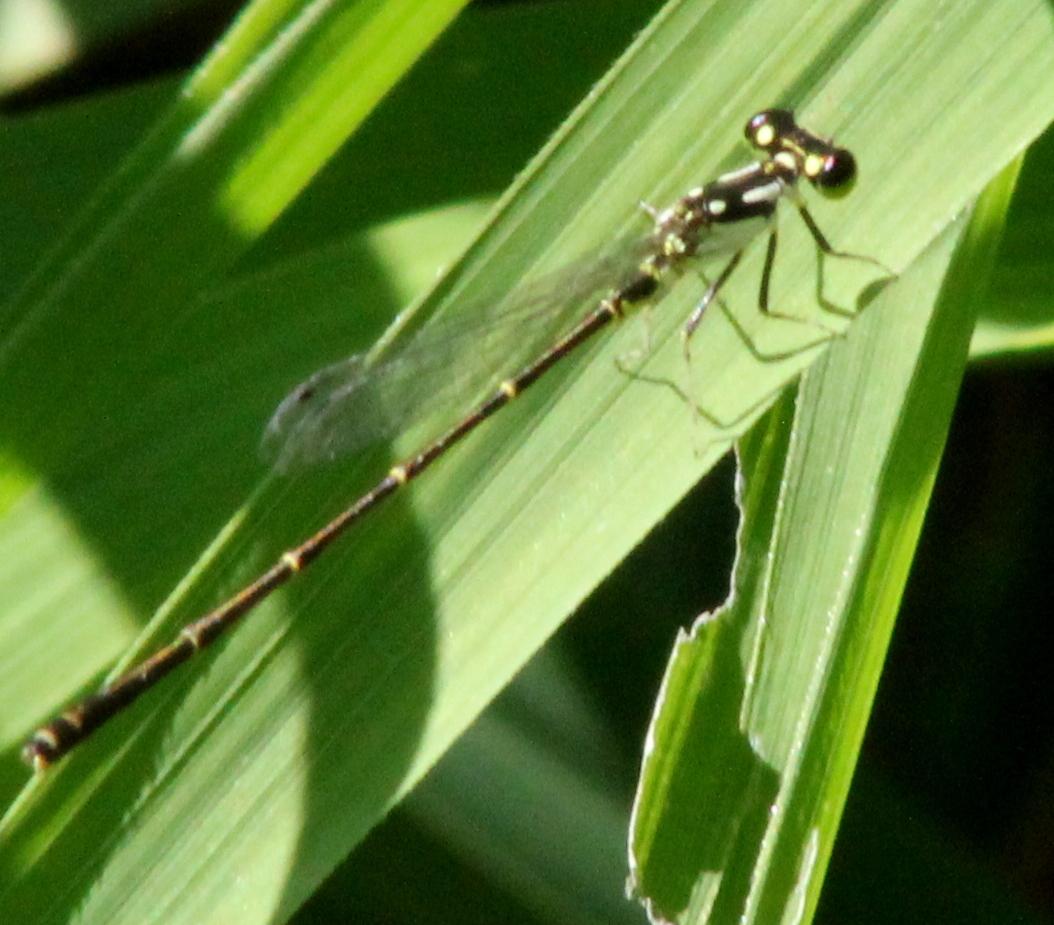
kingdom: Animalia
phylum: Arthropoda
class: Insecta
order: Odonata
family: Coenagrionidae
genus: Ischnura
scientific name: Ischnura posita
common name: Fragile forktail
